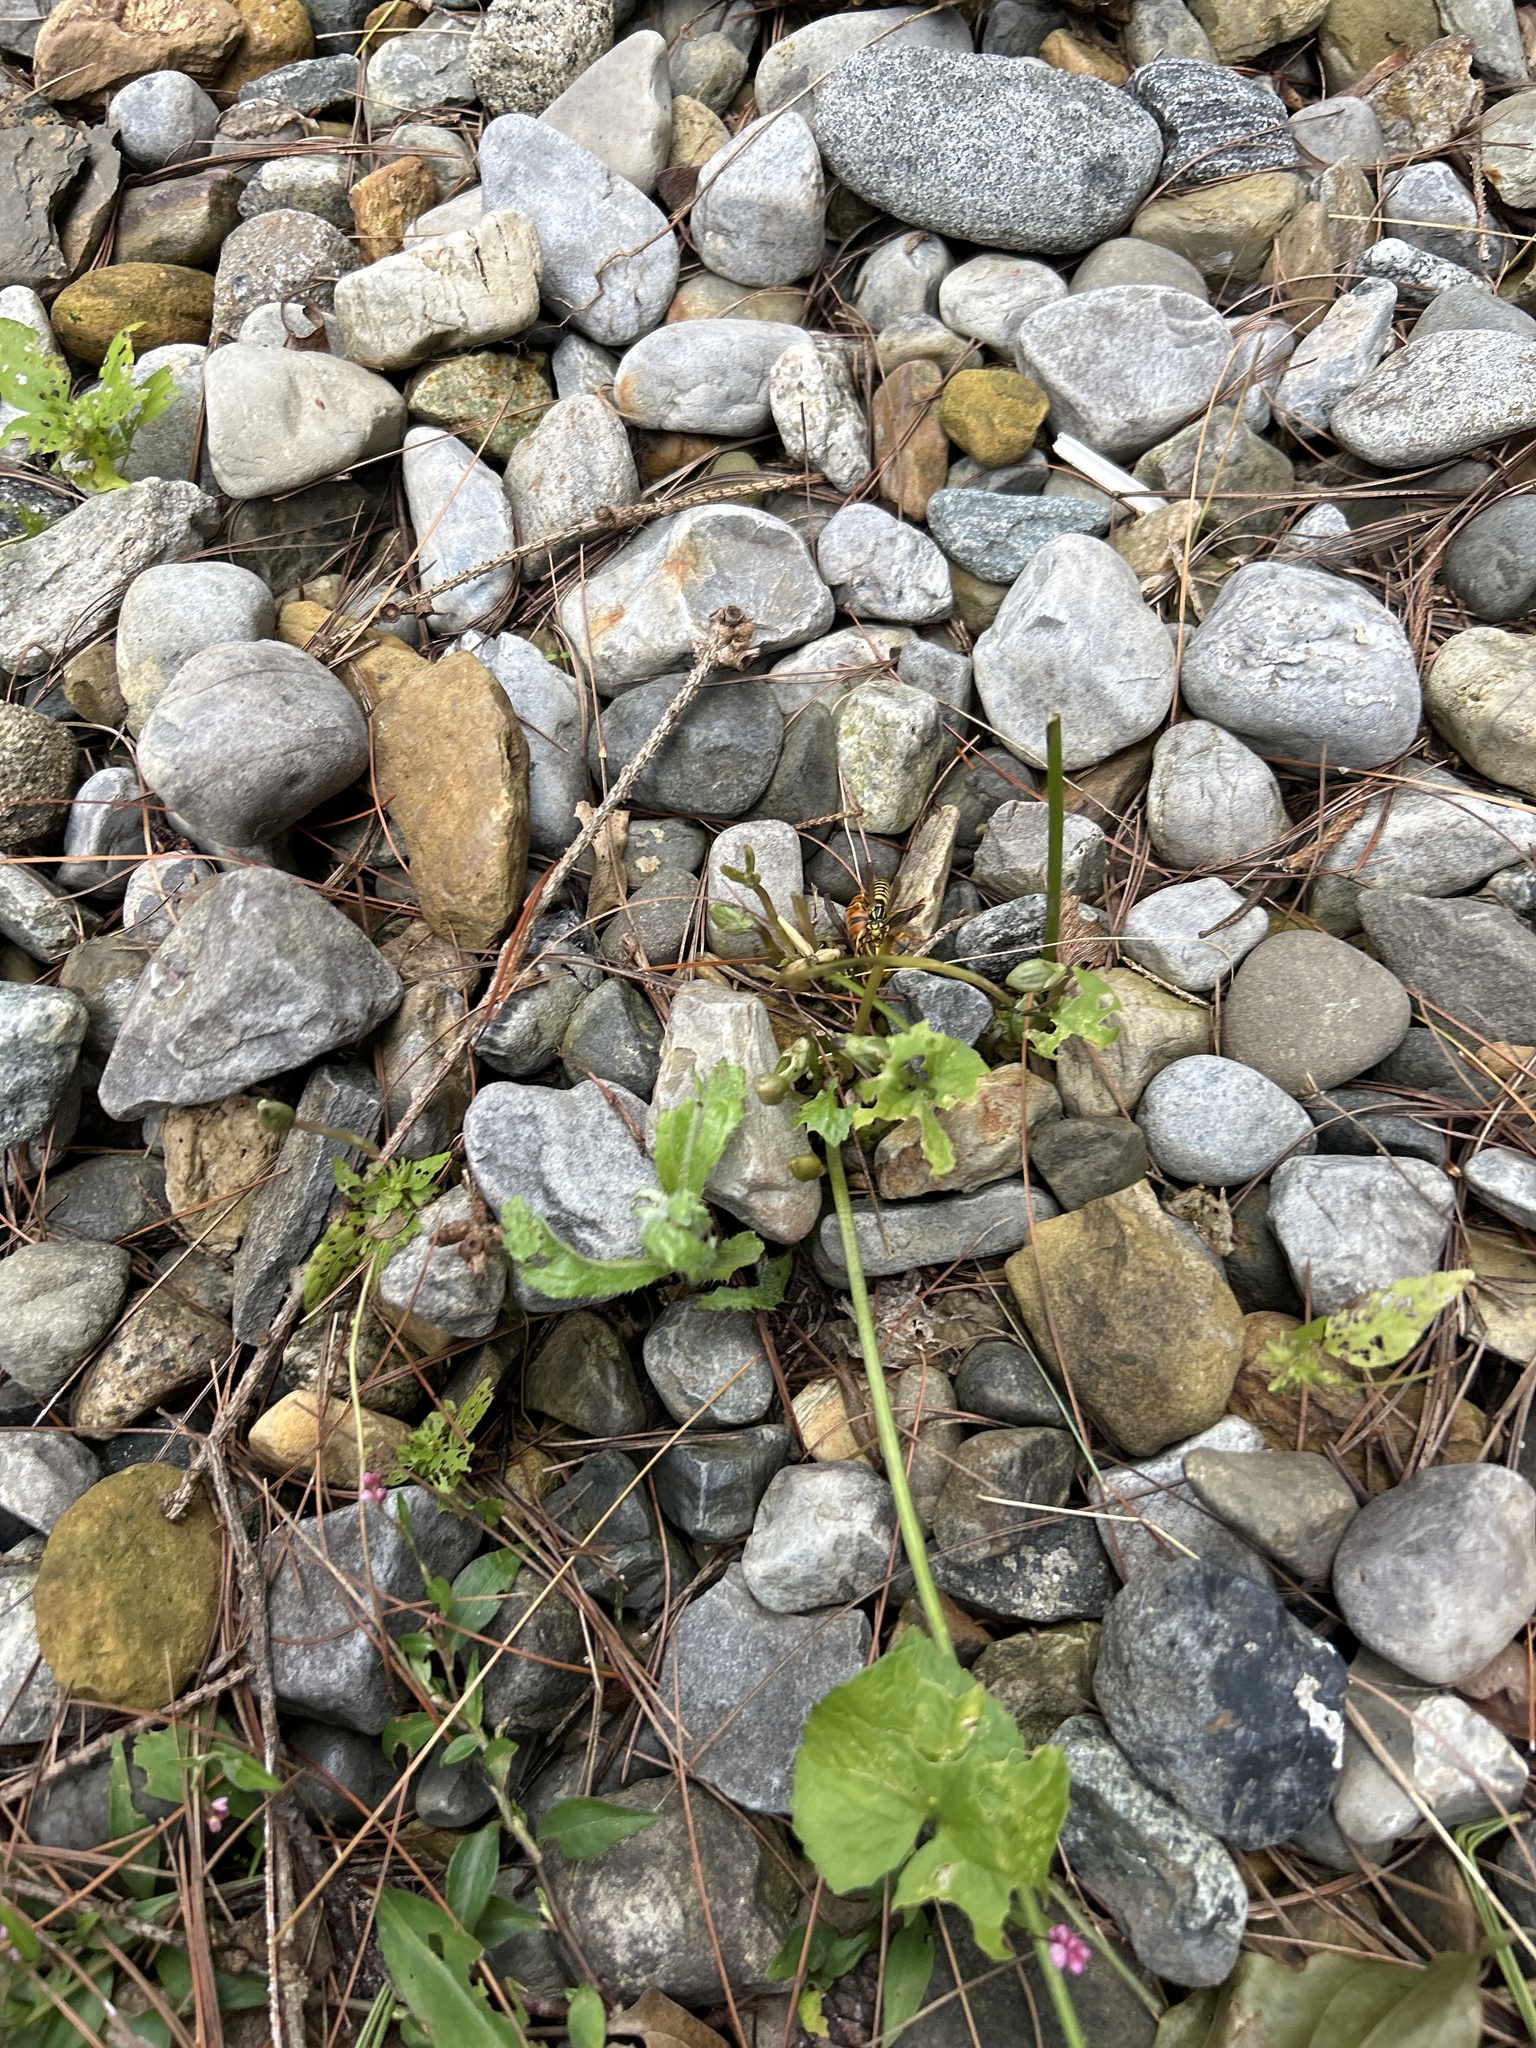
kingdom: Animalia
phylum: Arthropoda
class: Insecta
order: Hymenoptera
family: Vespidae
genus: Vespula
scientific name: Vespula squamosa
